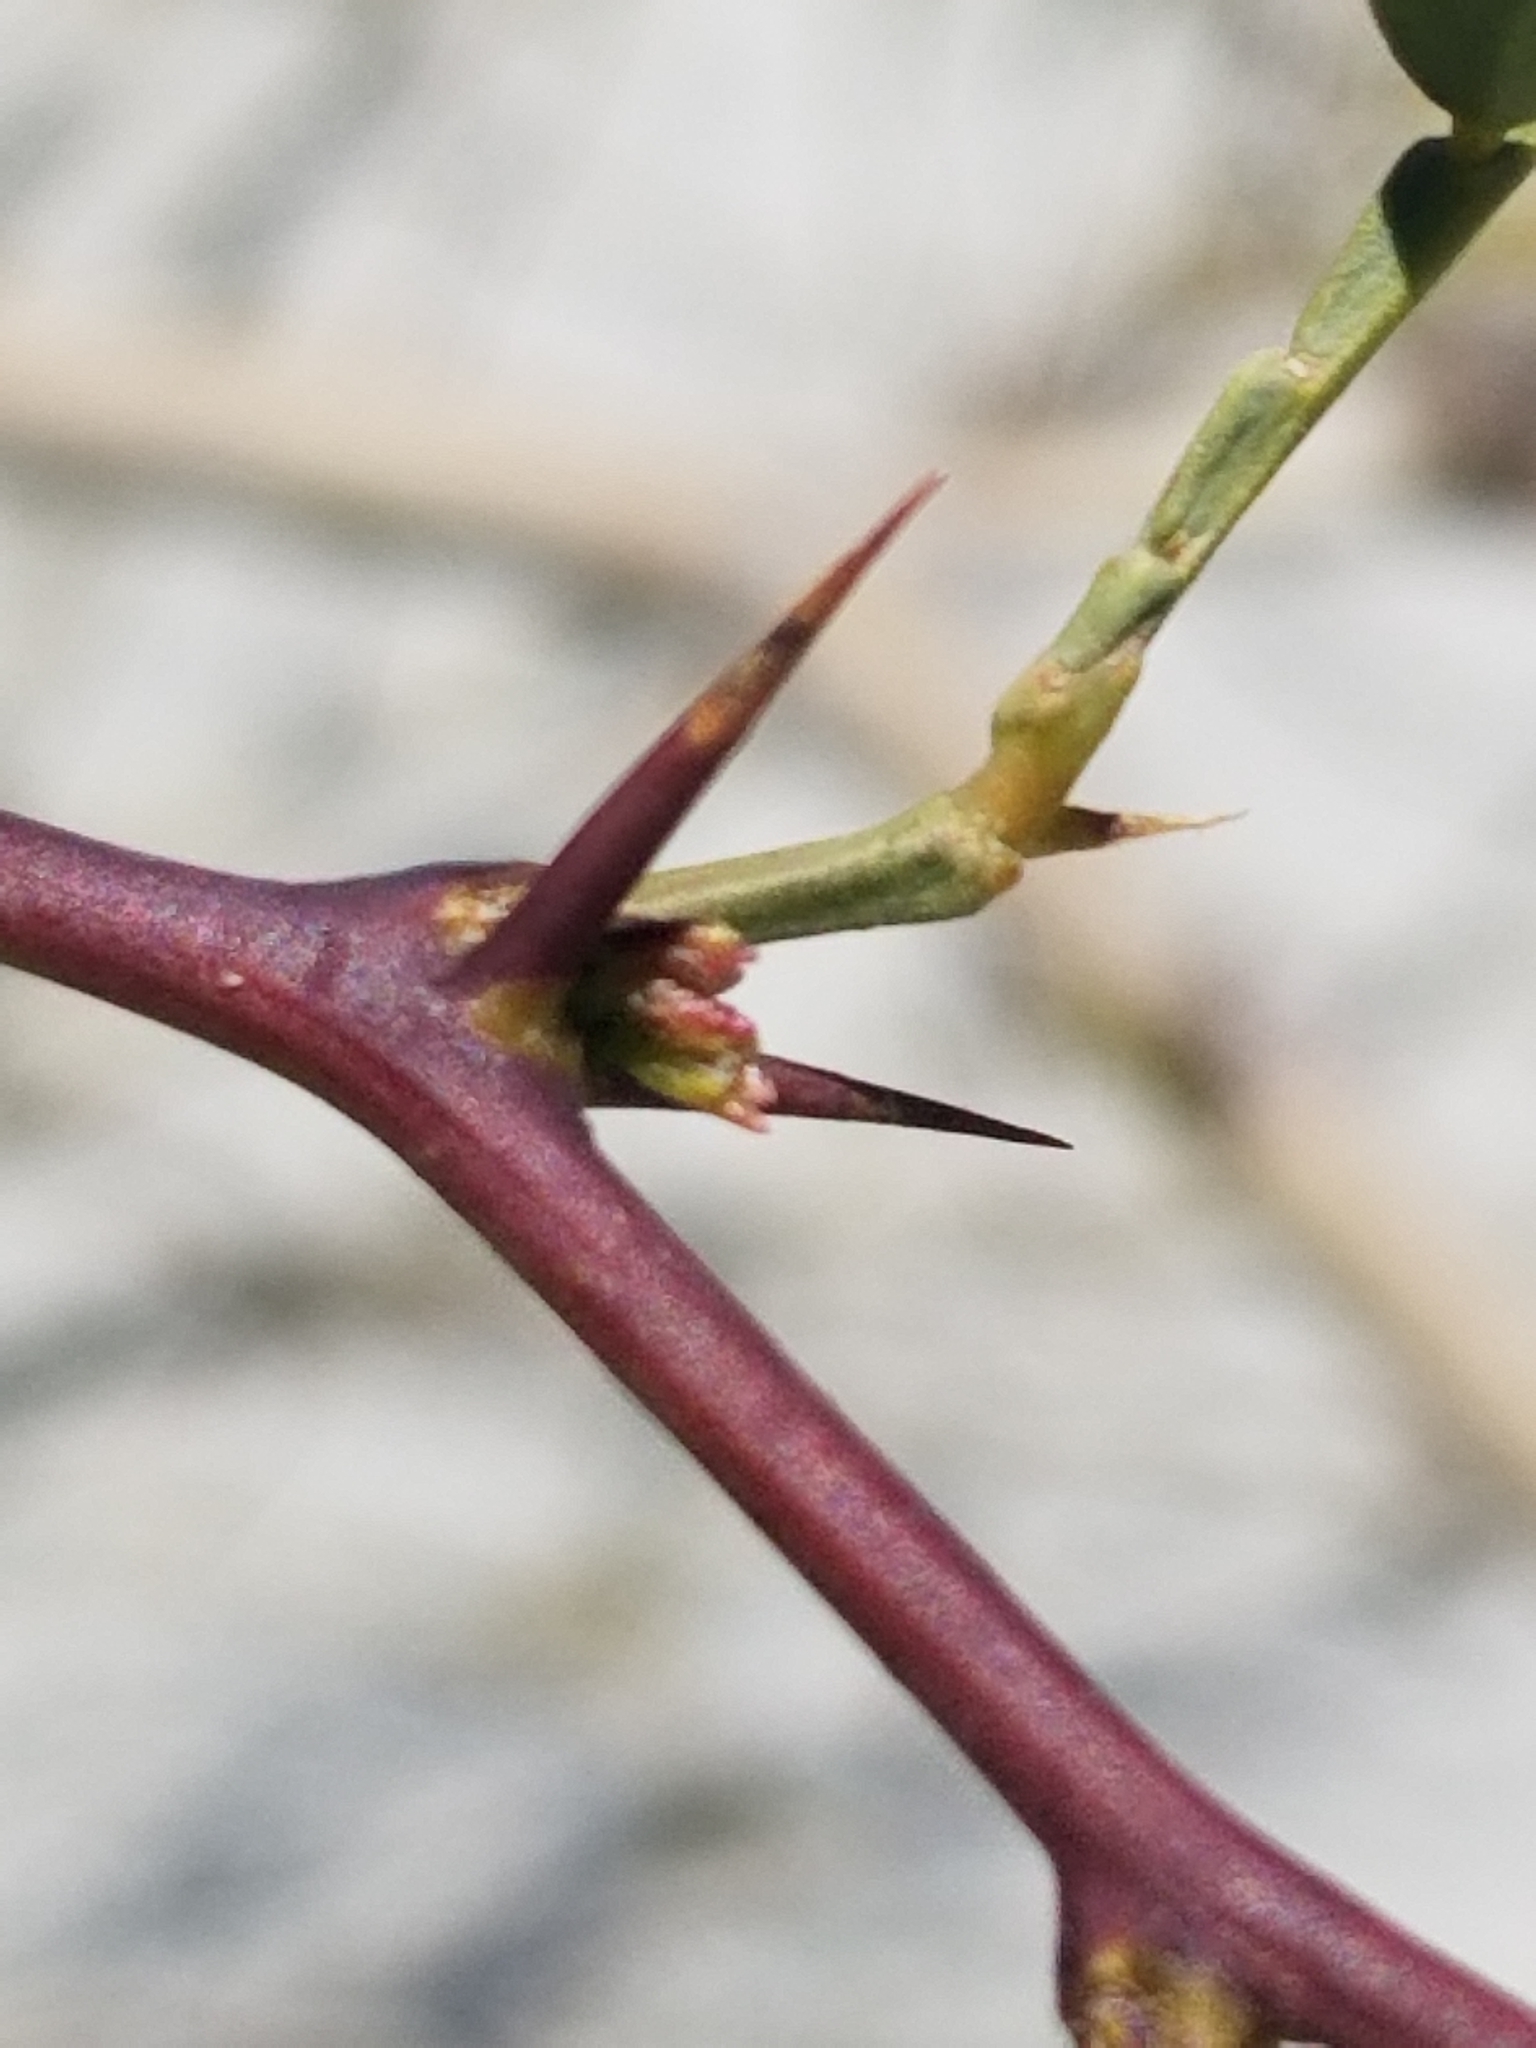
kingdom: Plantae
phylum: Tracheophyta
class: Magnoliopsida
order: Fabales
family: Fabaceae
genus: Prosopis
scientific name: Prosopis pubescens
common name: Screw-bean
